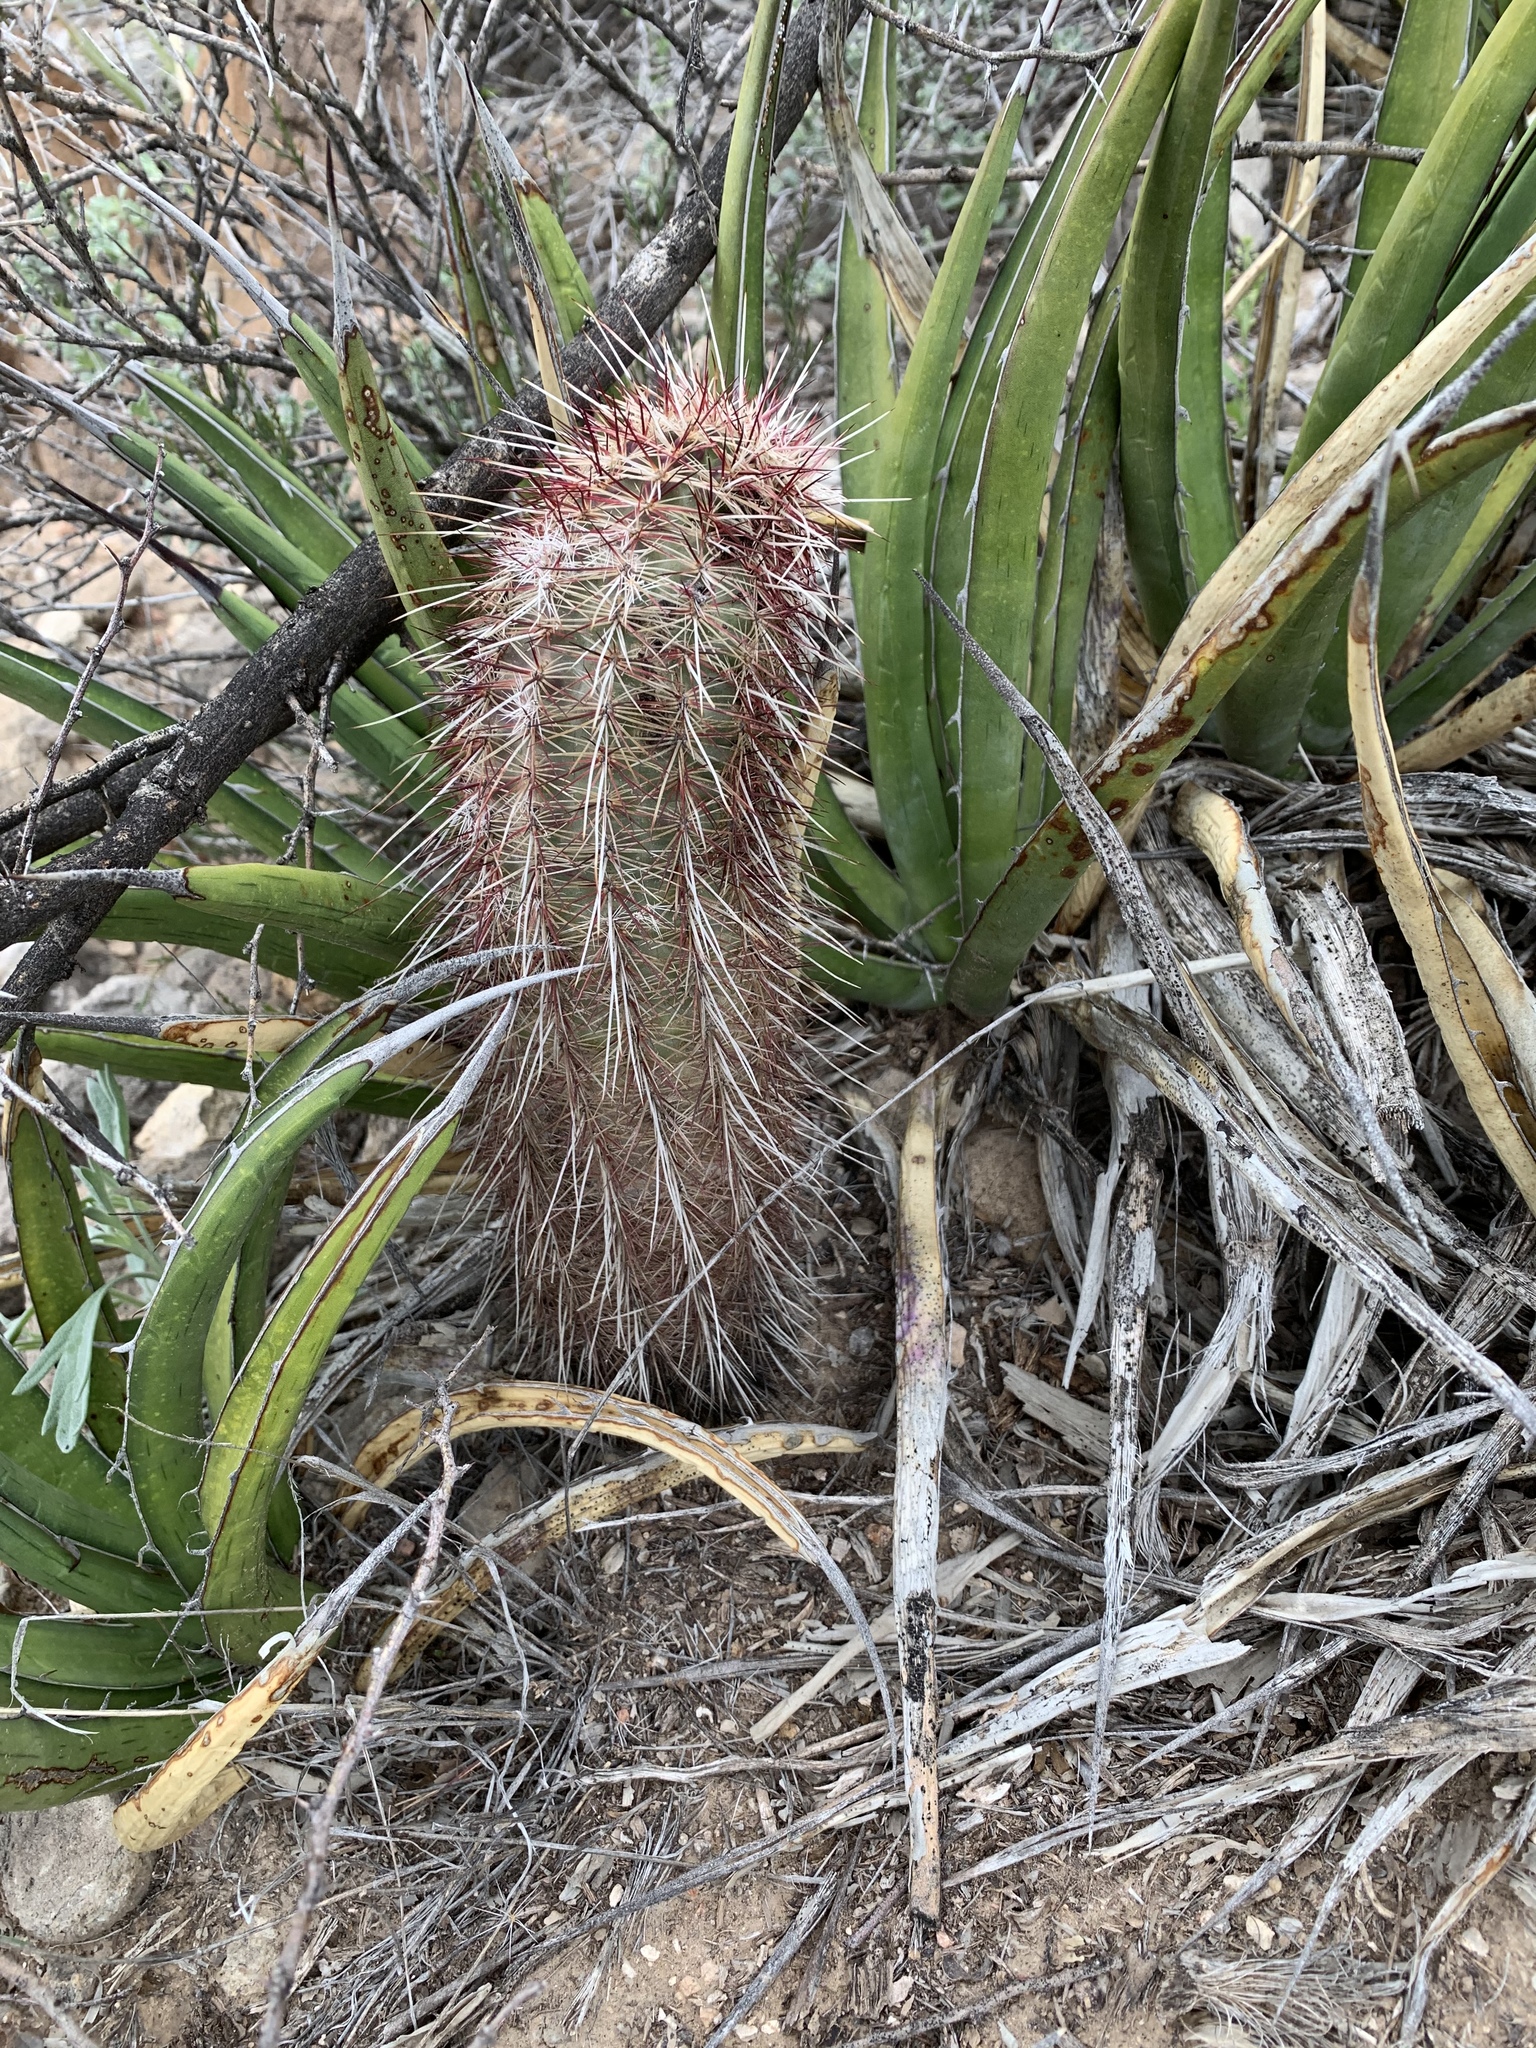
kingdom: Plantae
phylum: Tracheophyta
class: Magnoliopsida
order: Caryophyllales
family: Cactaceae
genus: Echinocereus
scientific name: Echinocereus viridiflorus
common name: Nylon hedgehog cactus
